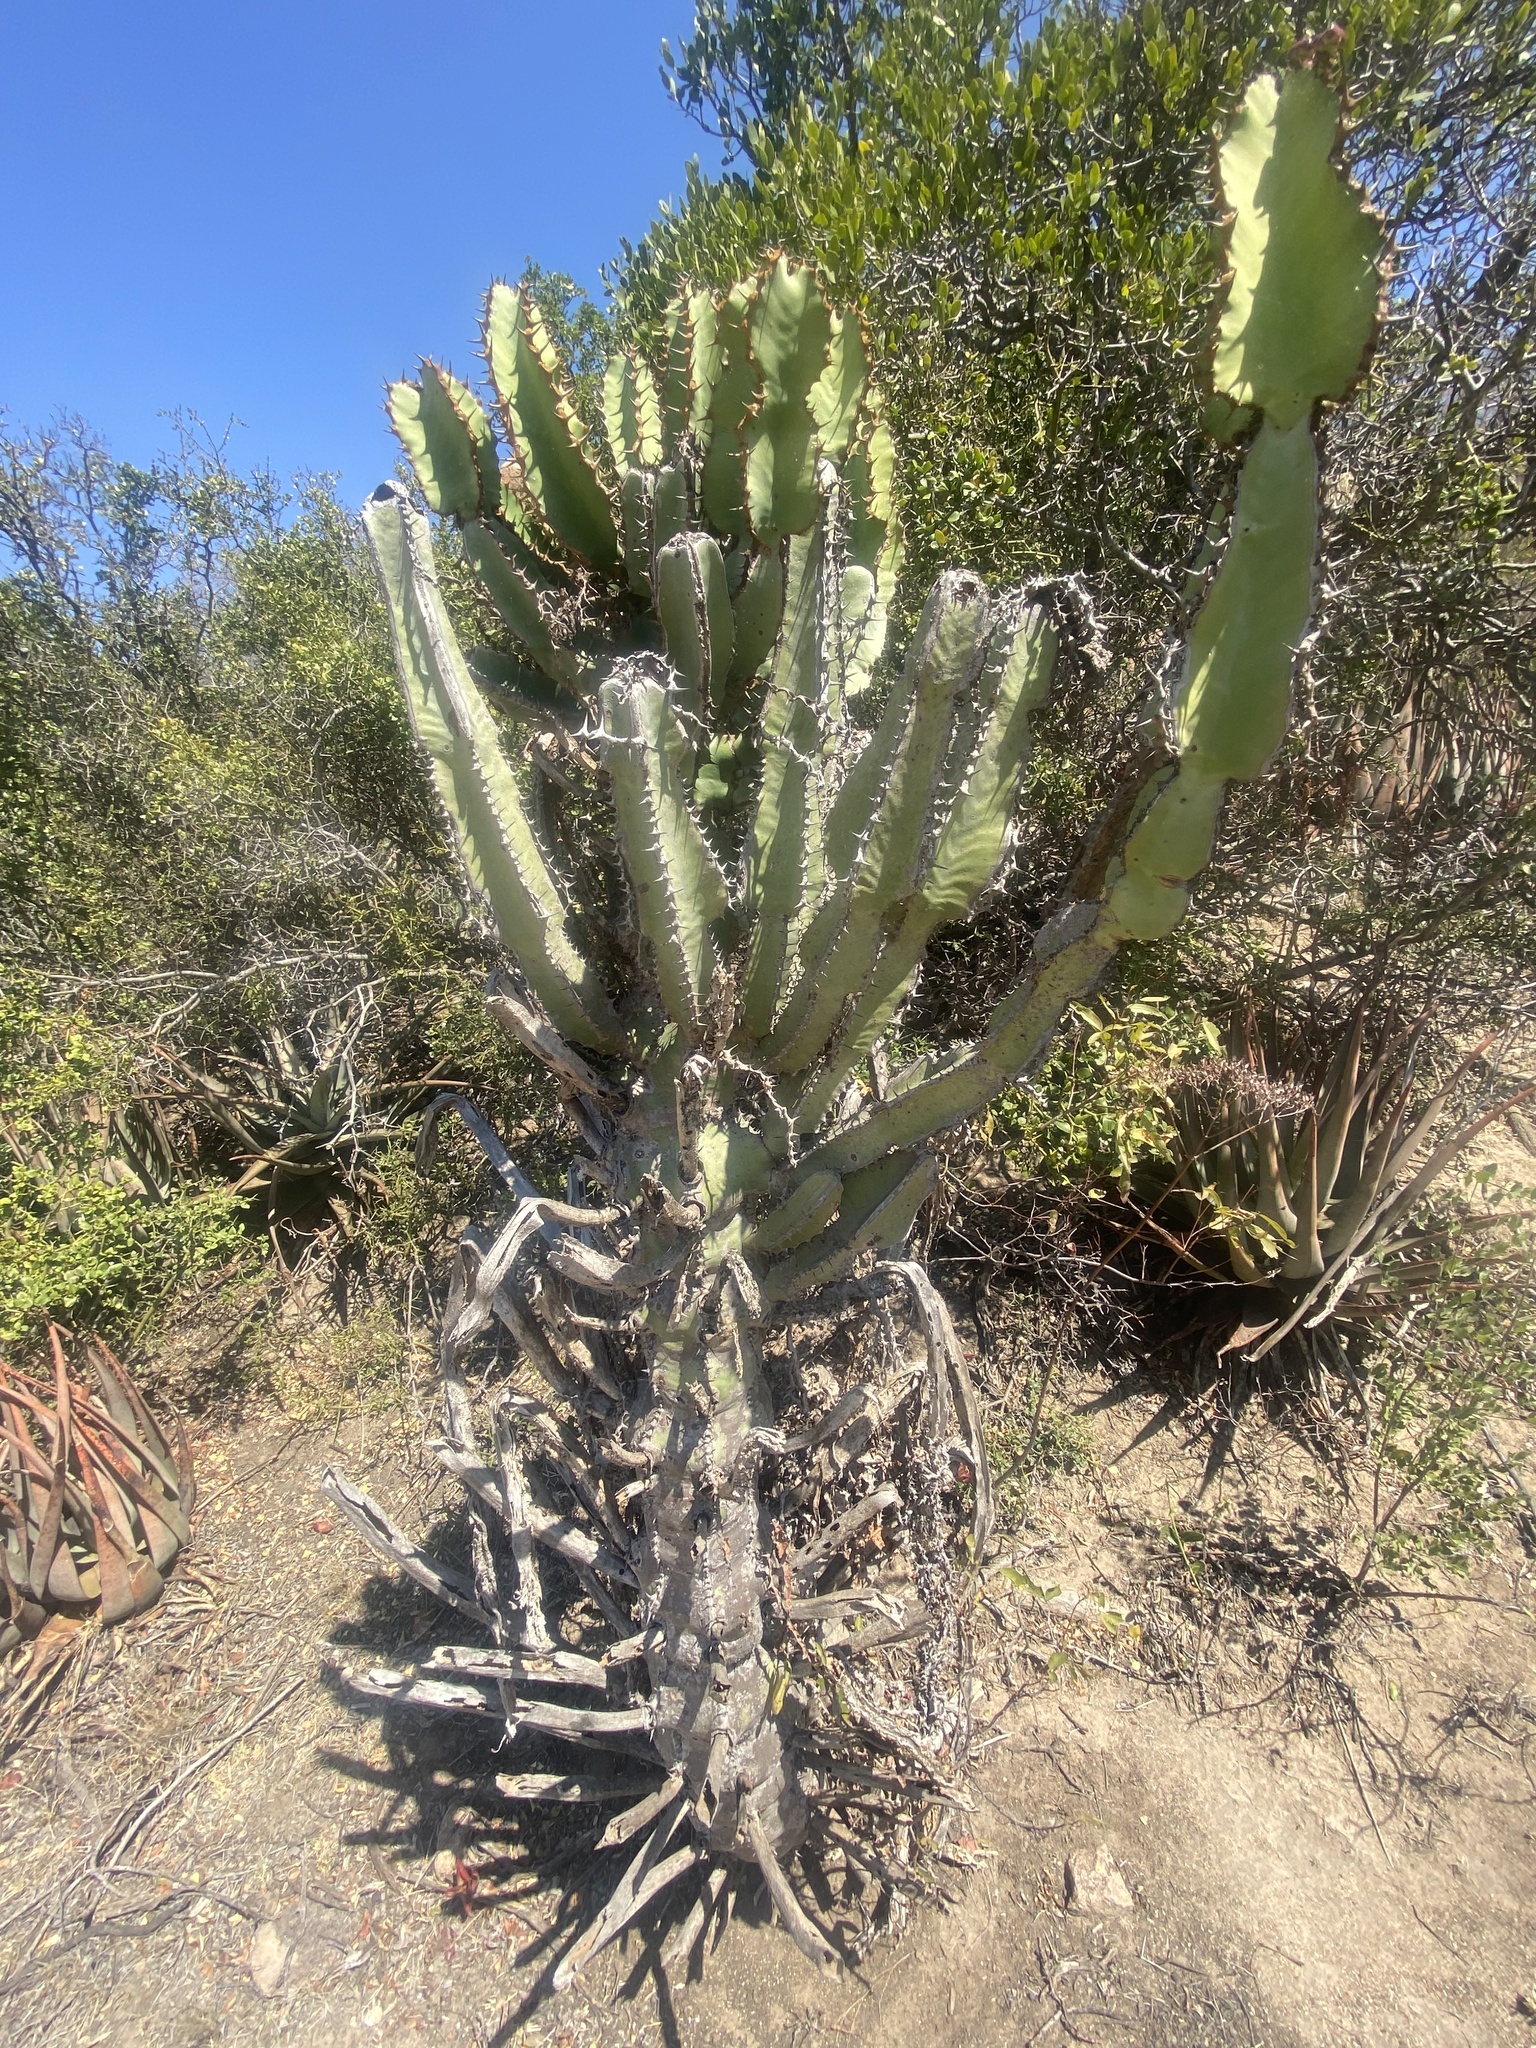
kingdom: Plantae
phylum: Tracheophyta
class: Magnoliopsida
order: Malpighiales
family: Euphorbiaceae
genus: Euphorbia
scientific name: Euphorbia cooperi
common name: Candelabra tree
